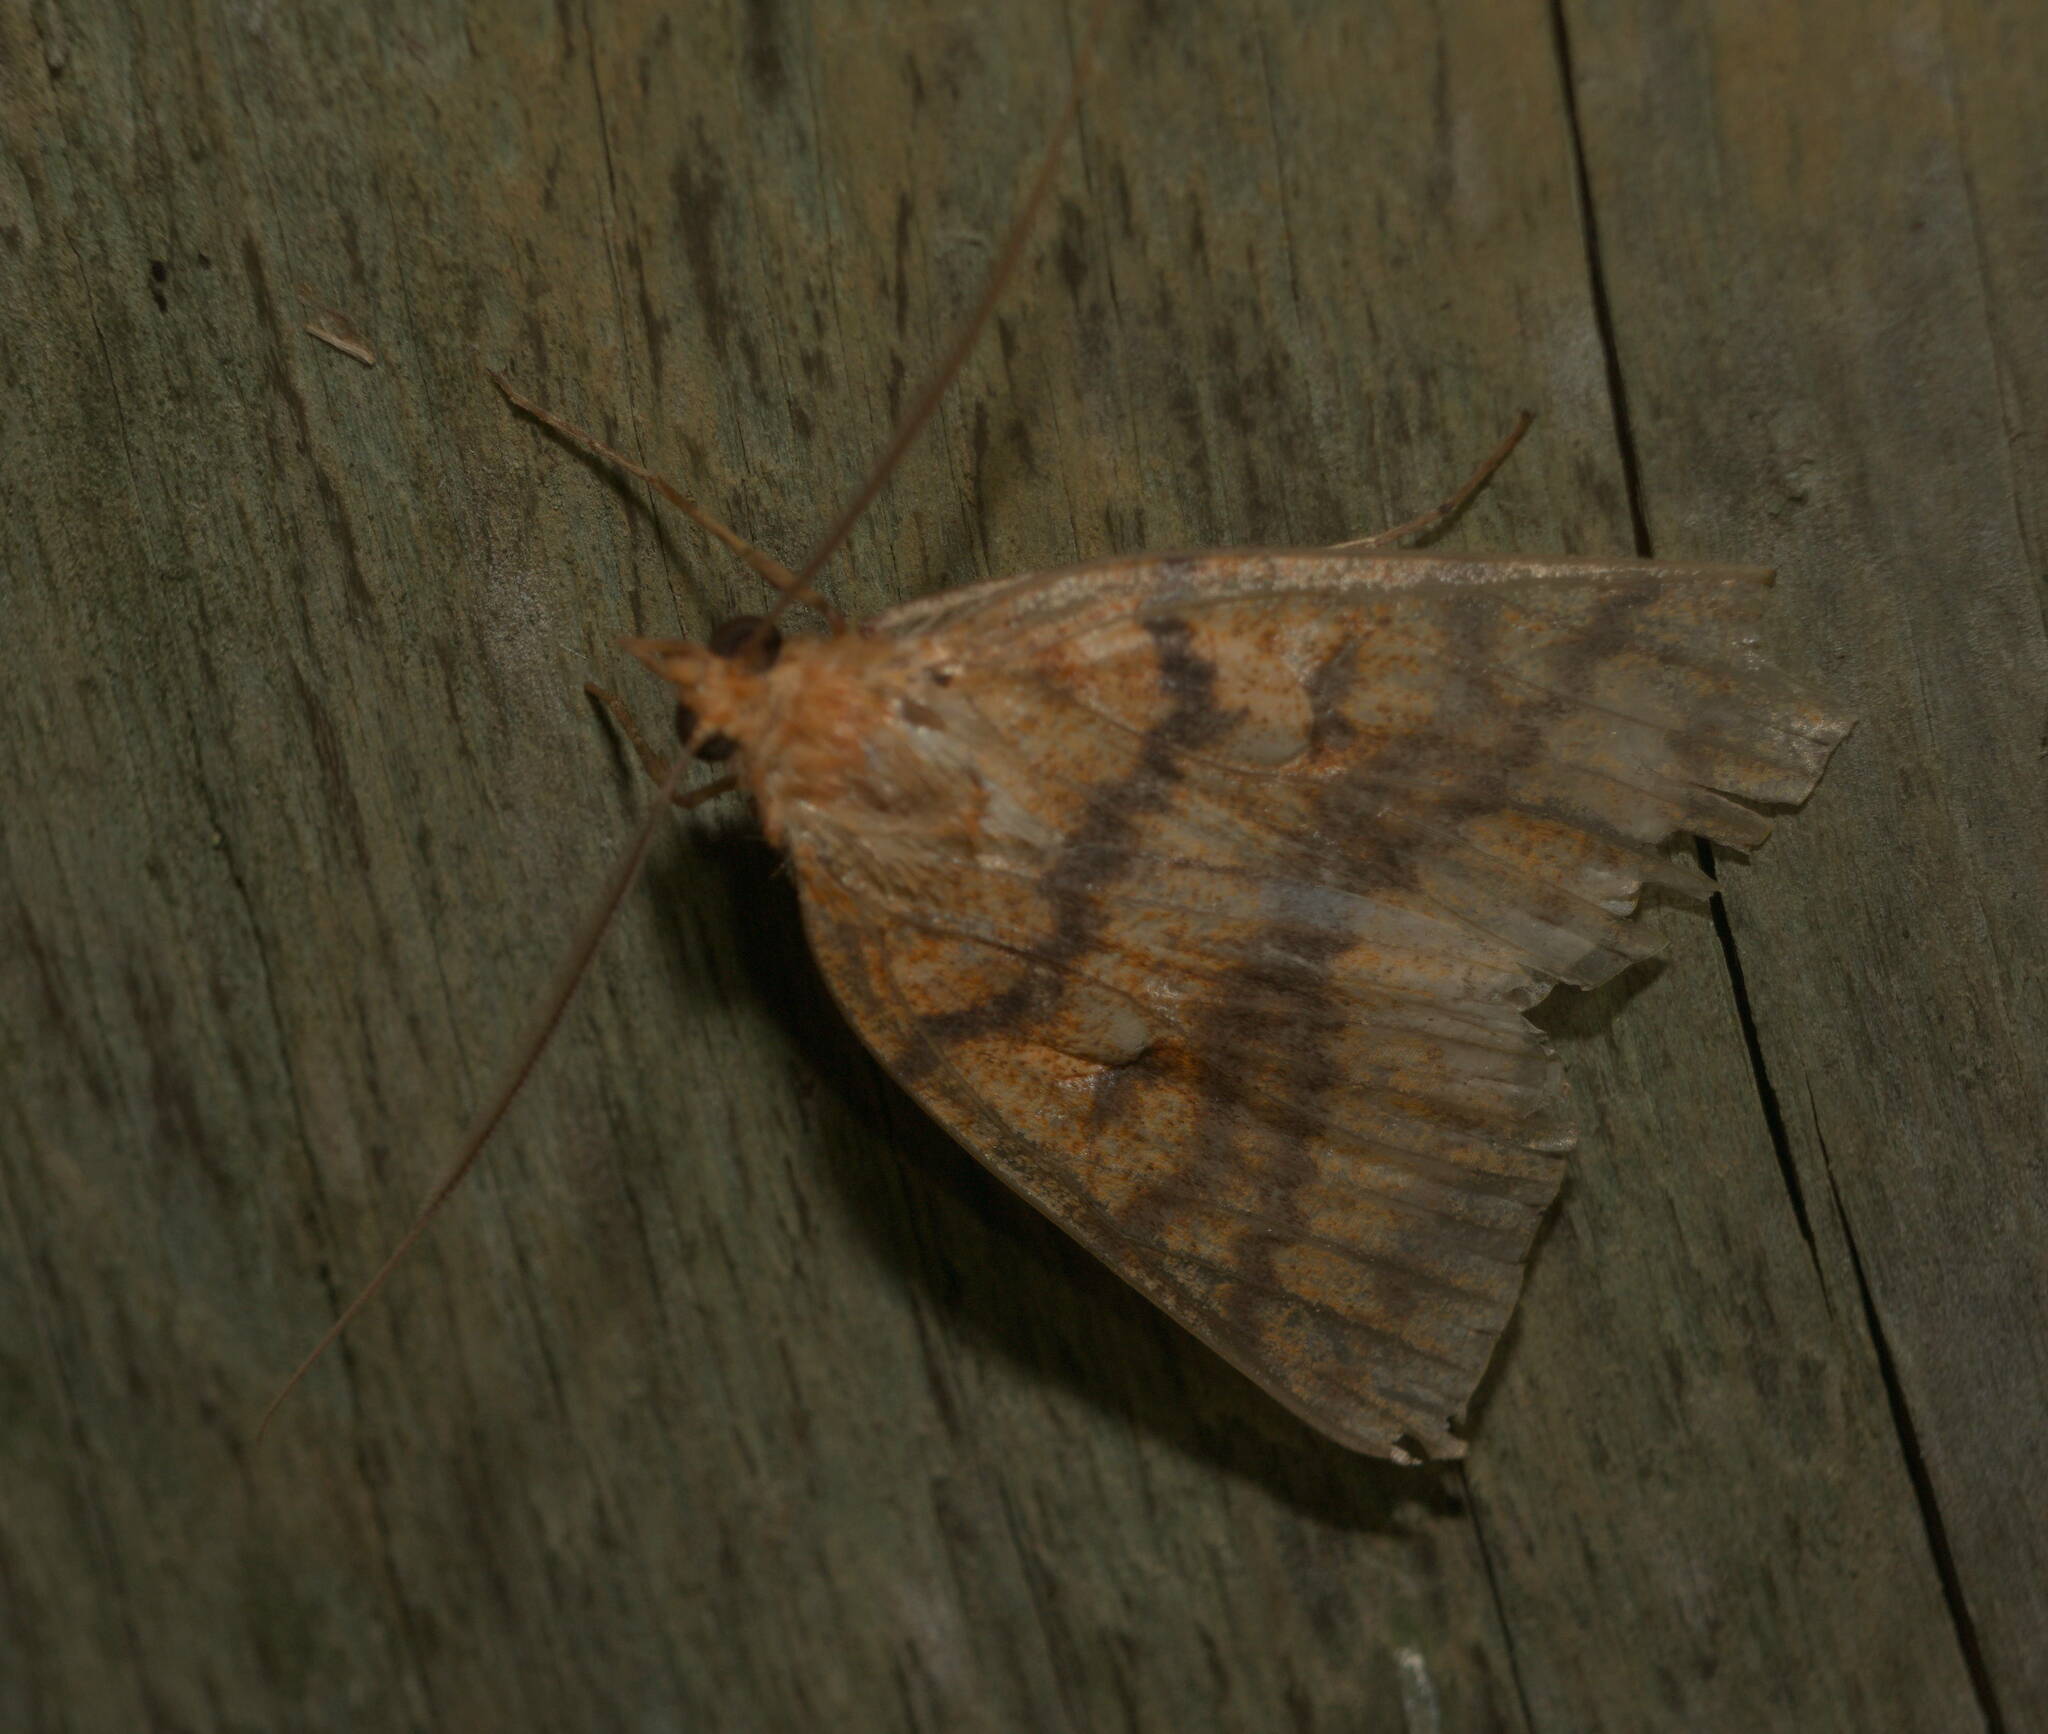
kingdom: Animalia
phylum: Arthropoda
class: Insecta
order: Lepidoptera
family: Geometridae
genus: Scotorythra
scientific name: Scotorythra epixantha
